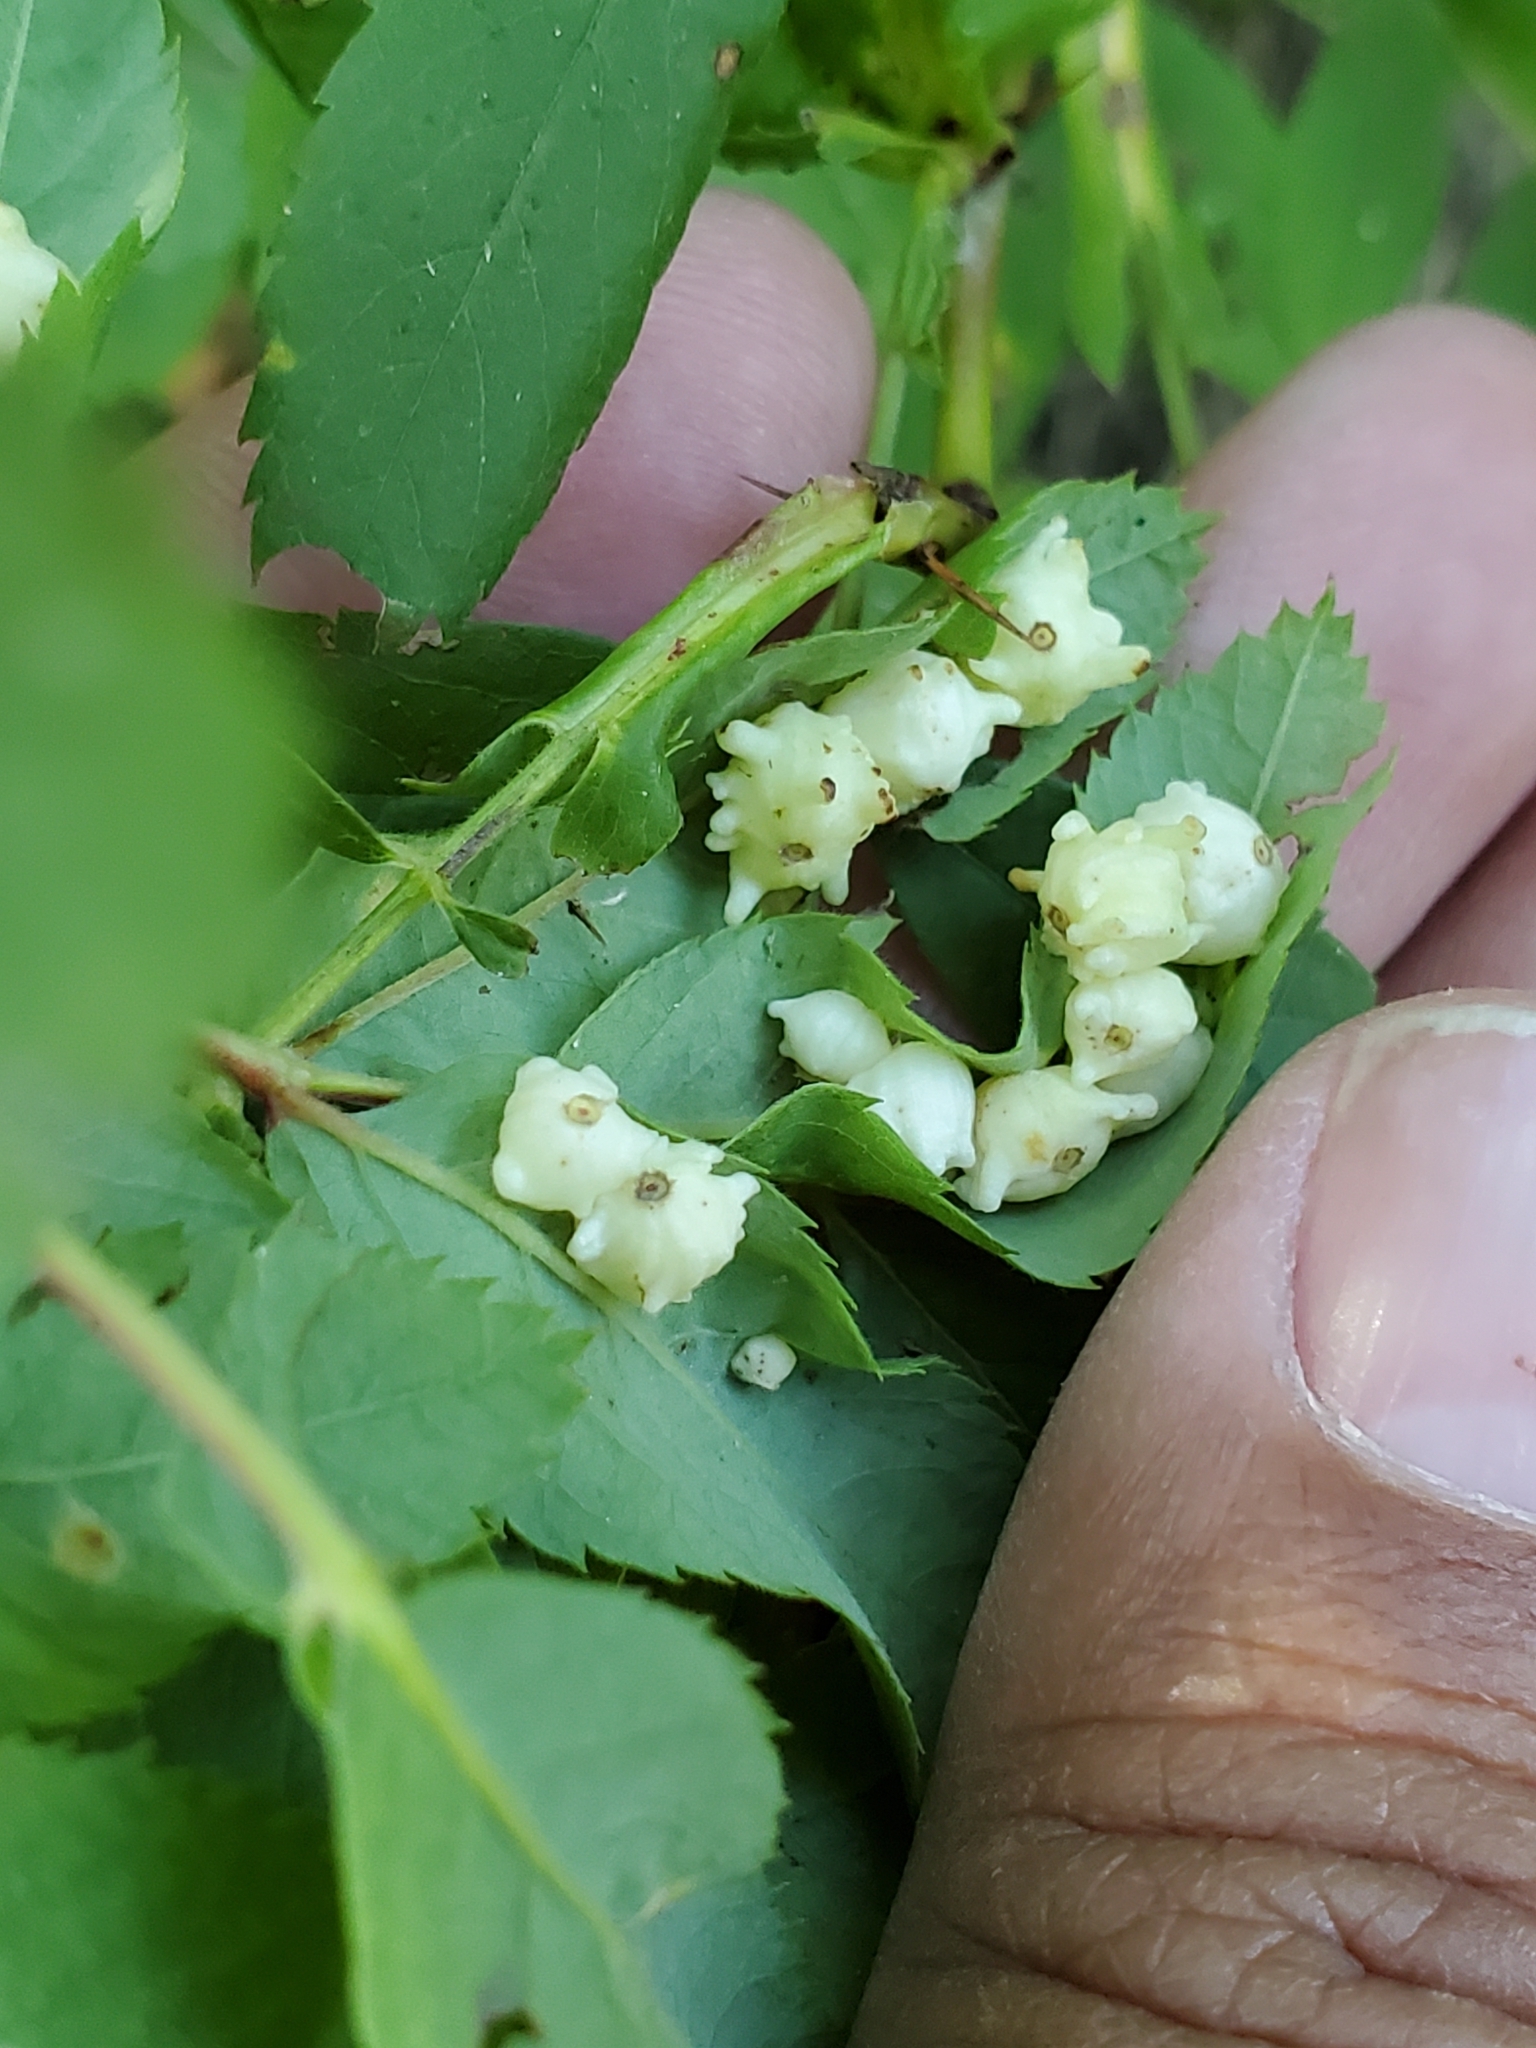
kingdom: Animalia
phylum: Arthropoda
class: Insecta
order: Hymenoptera
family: Cynipidae
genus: Diplolepis
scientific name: Diplolepis gracilis
